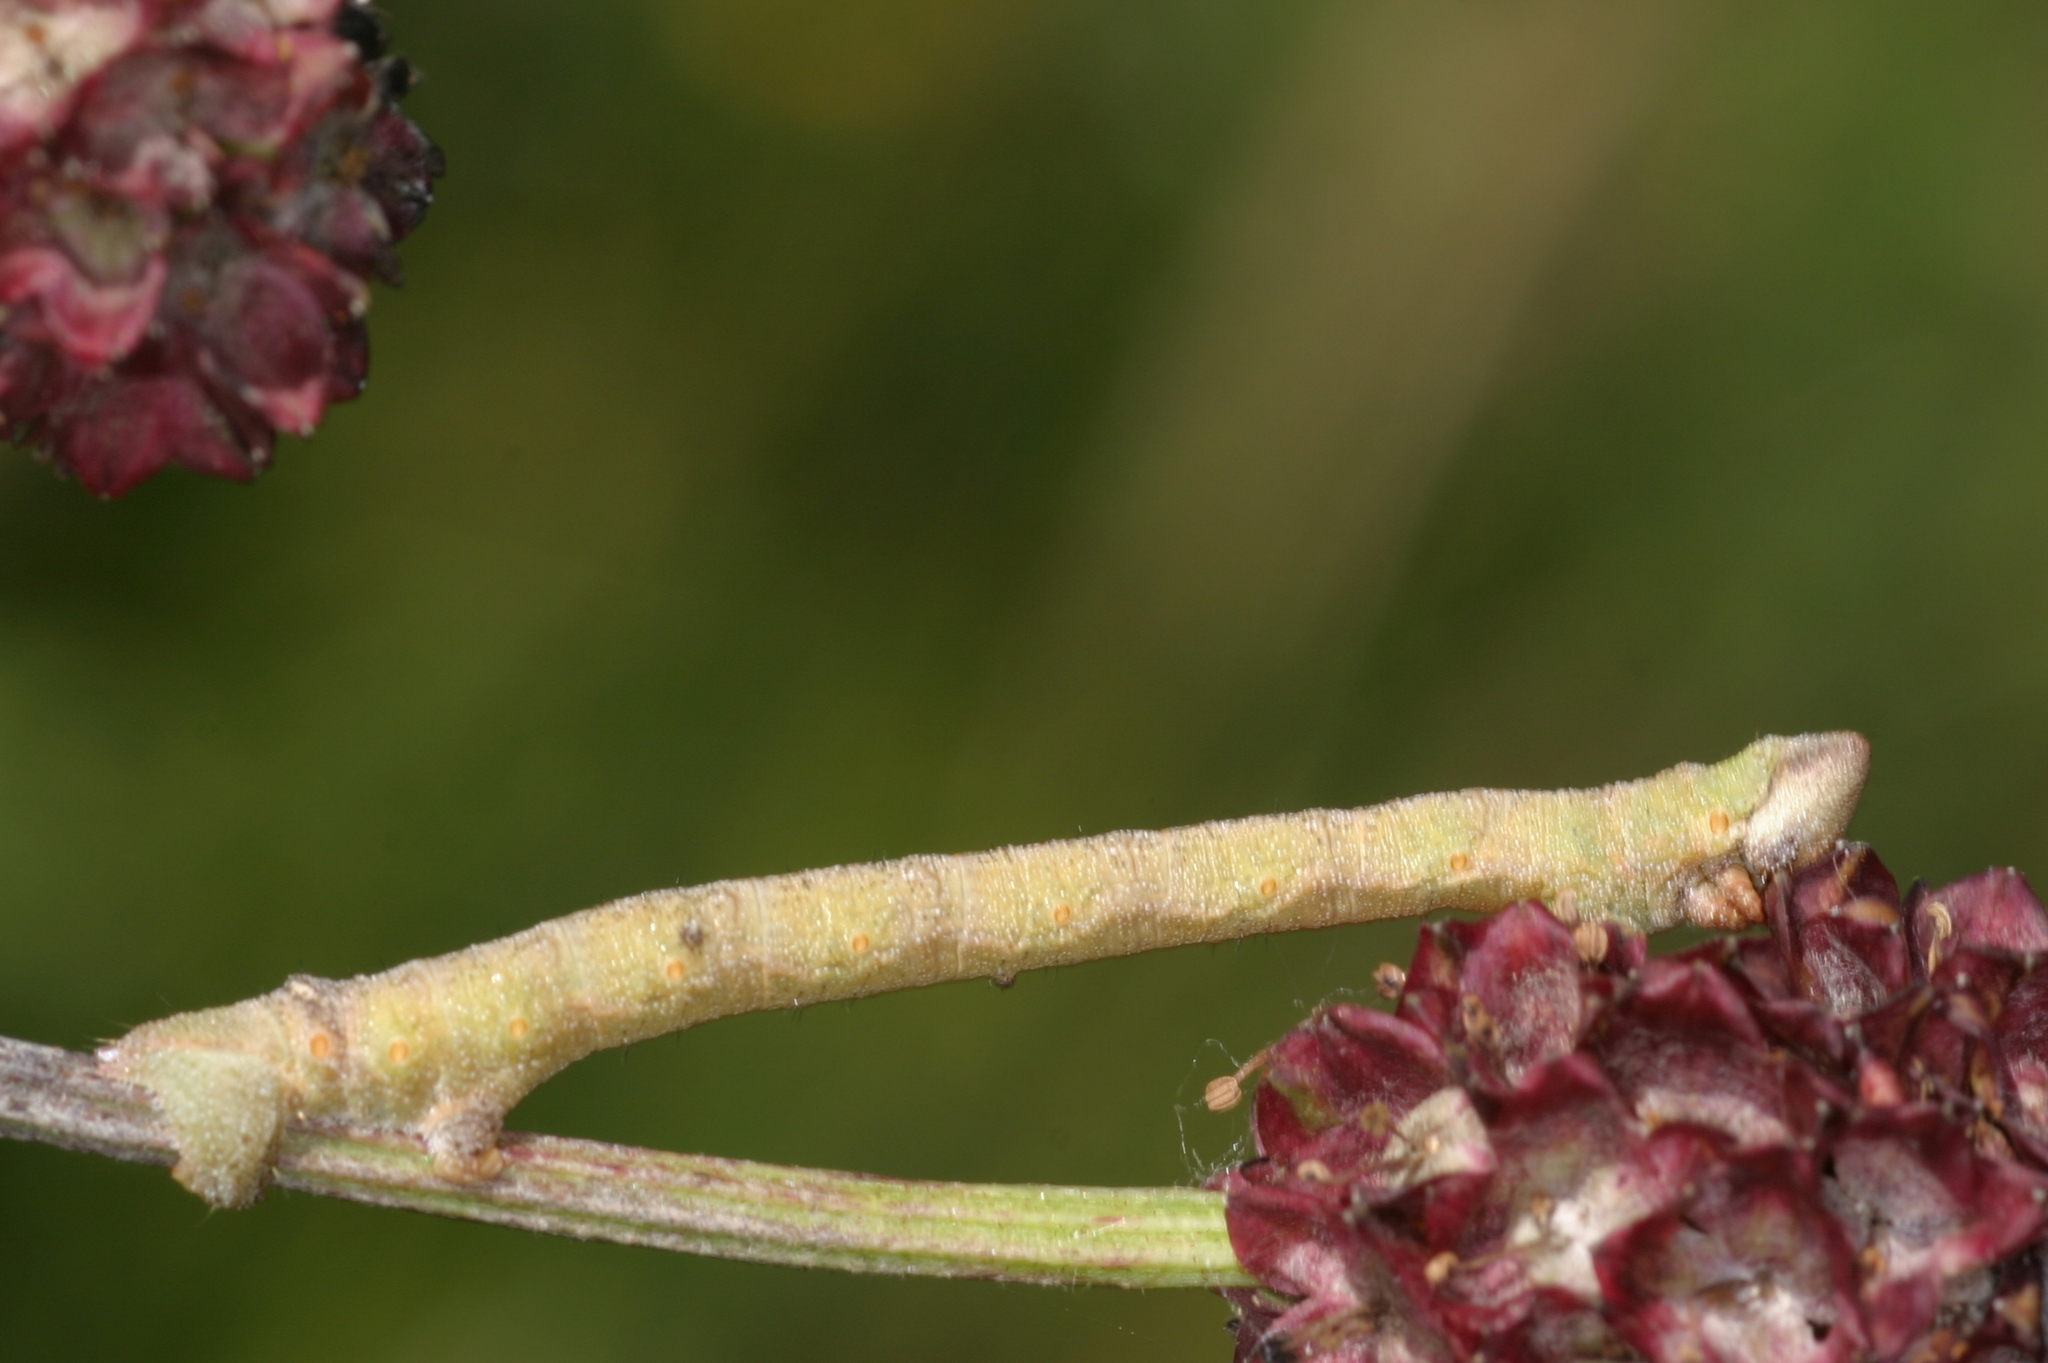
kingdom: Animalia
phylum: Arthropoda
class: Insecta
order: Lepidoptera
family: Geometridae
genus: Biston
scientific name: Biston betularia
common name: Peppered moth
